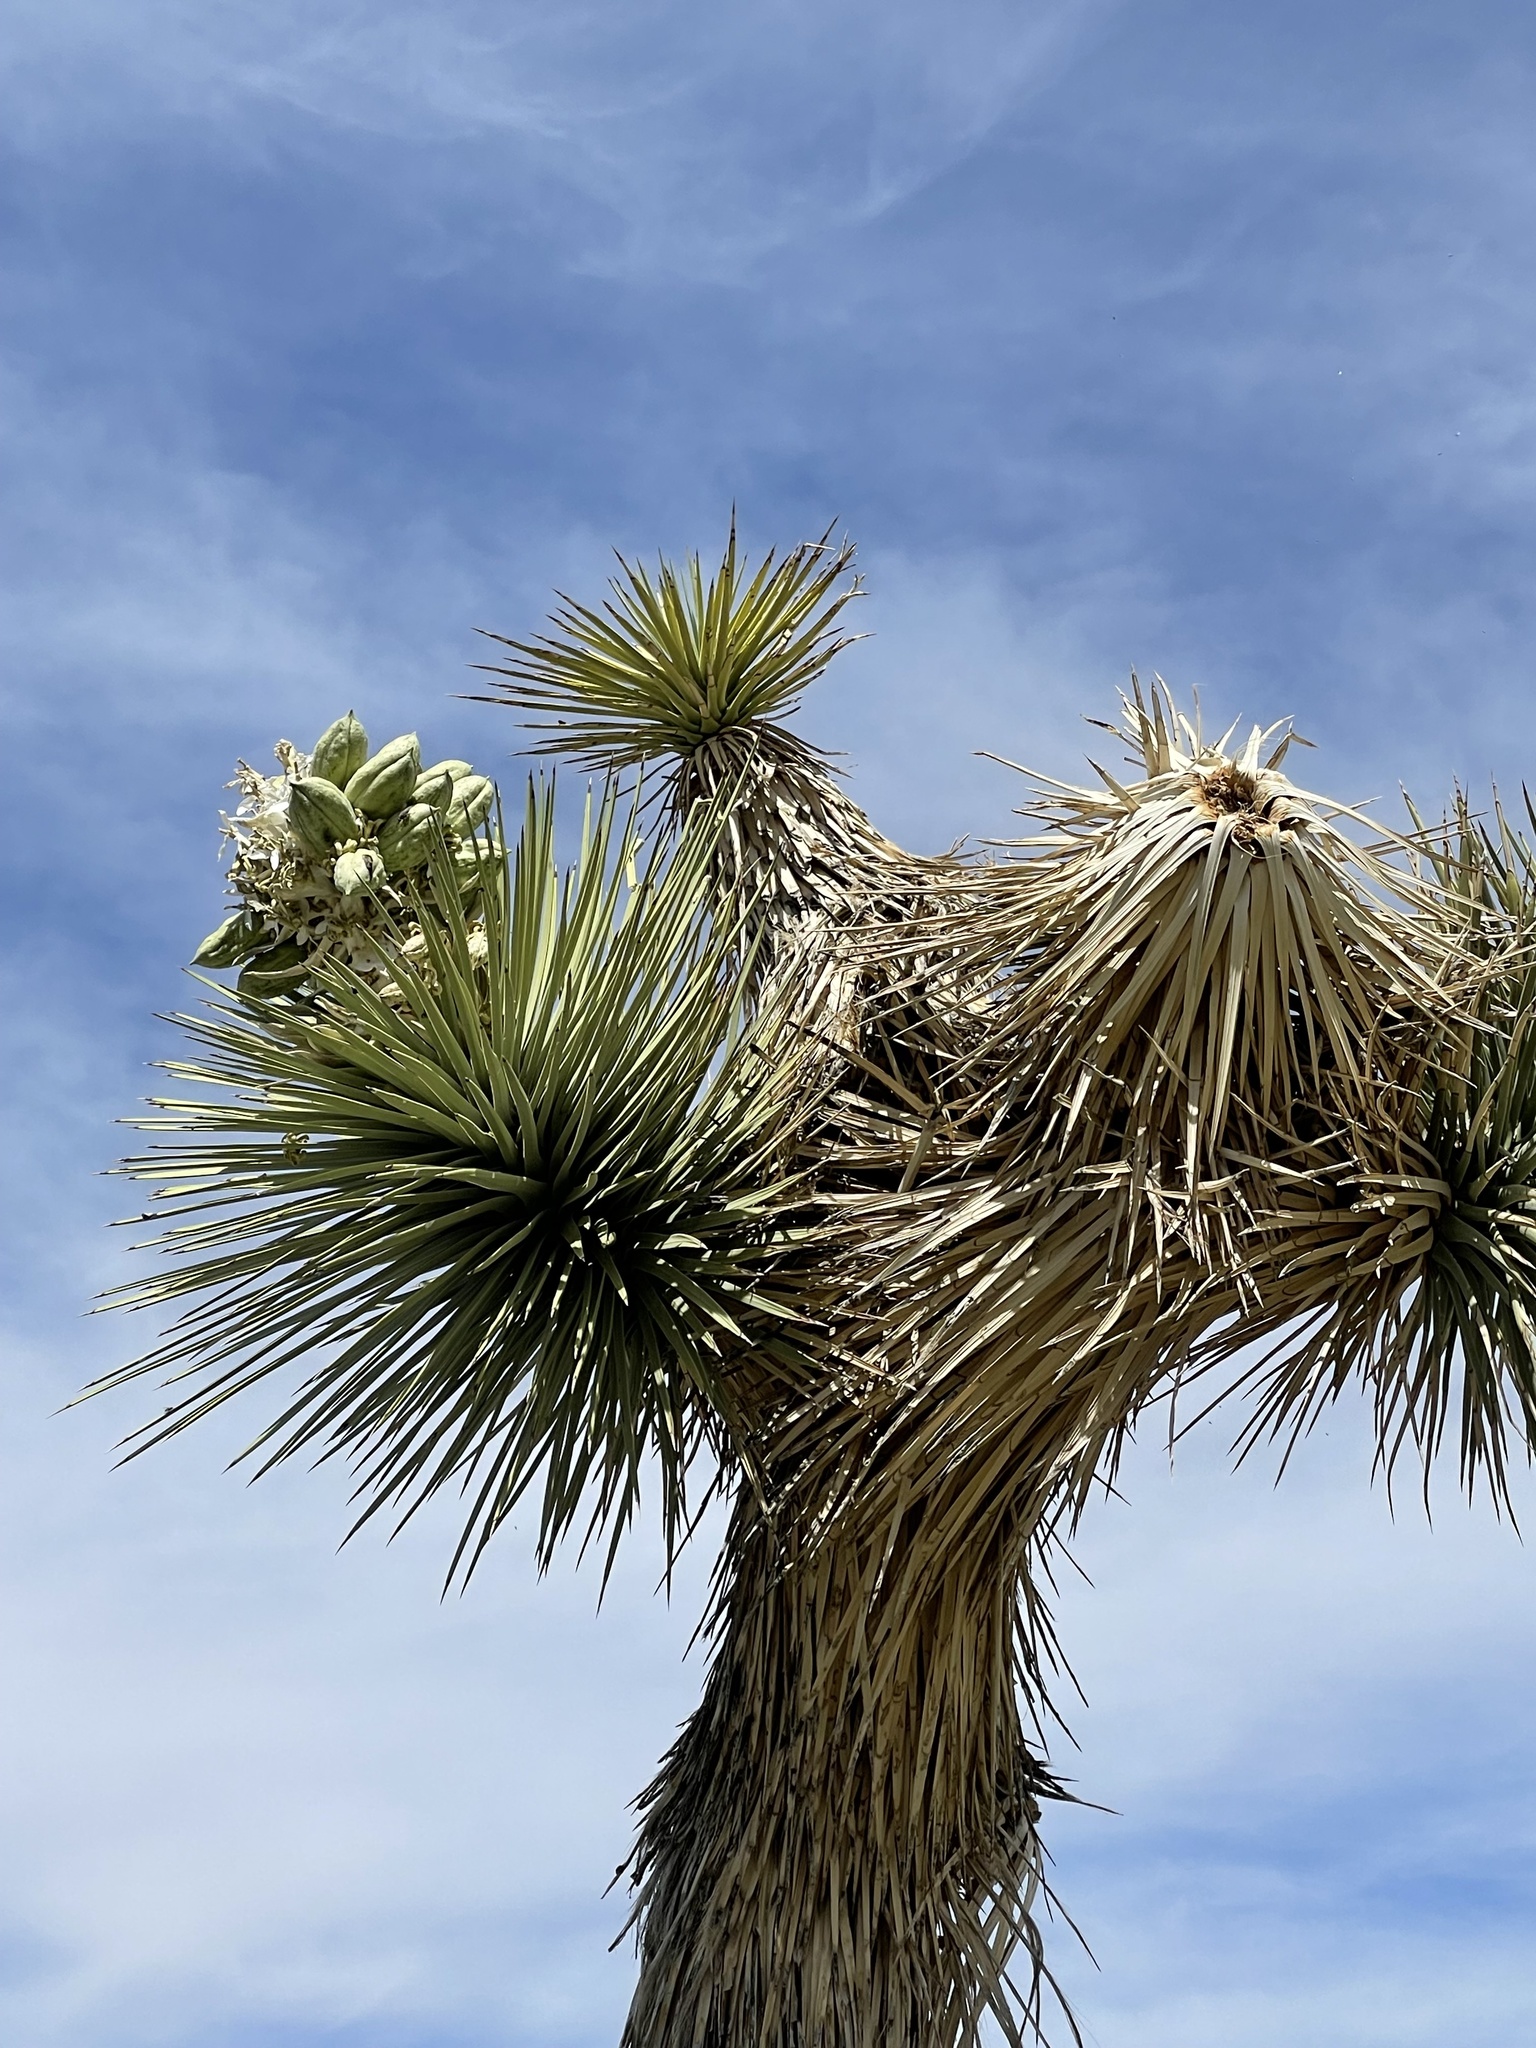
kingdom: Plantae
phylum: Tracheophyta
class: Liliopsida
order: Asparagales
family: Asparagaceae
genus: Yucca
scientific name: Yucca brevifolia
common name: Joshua tree
